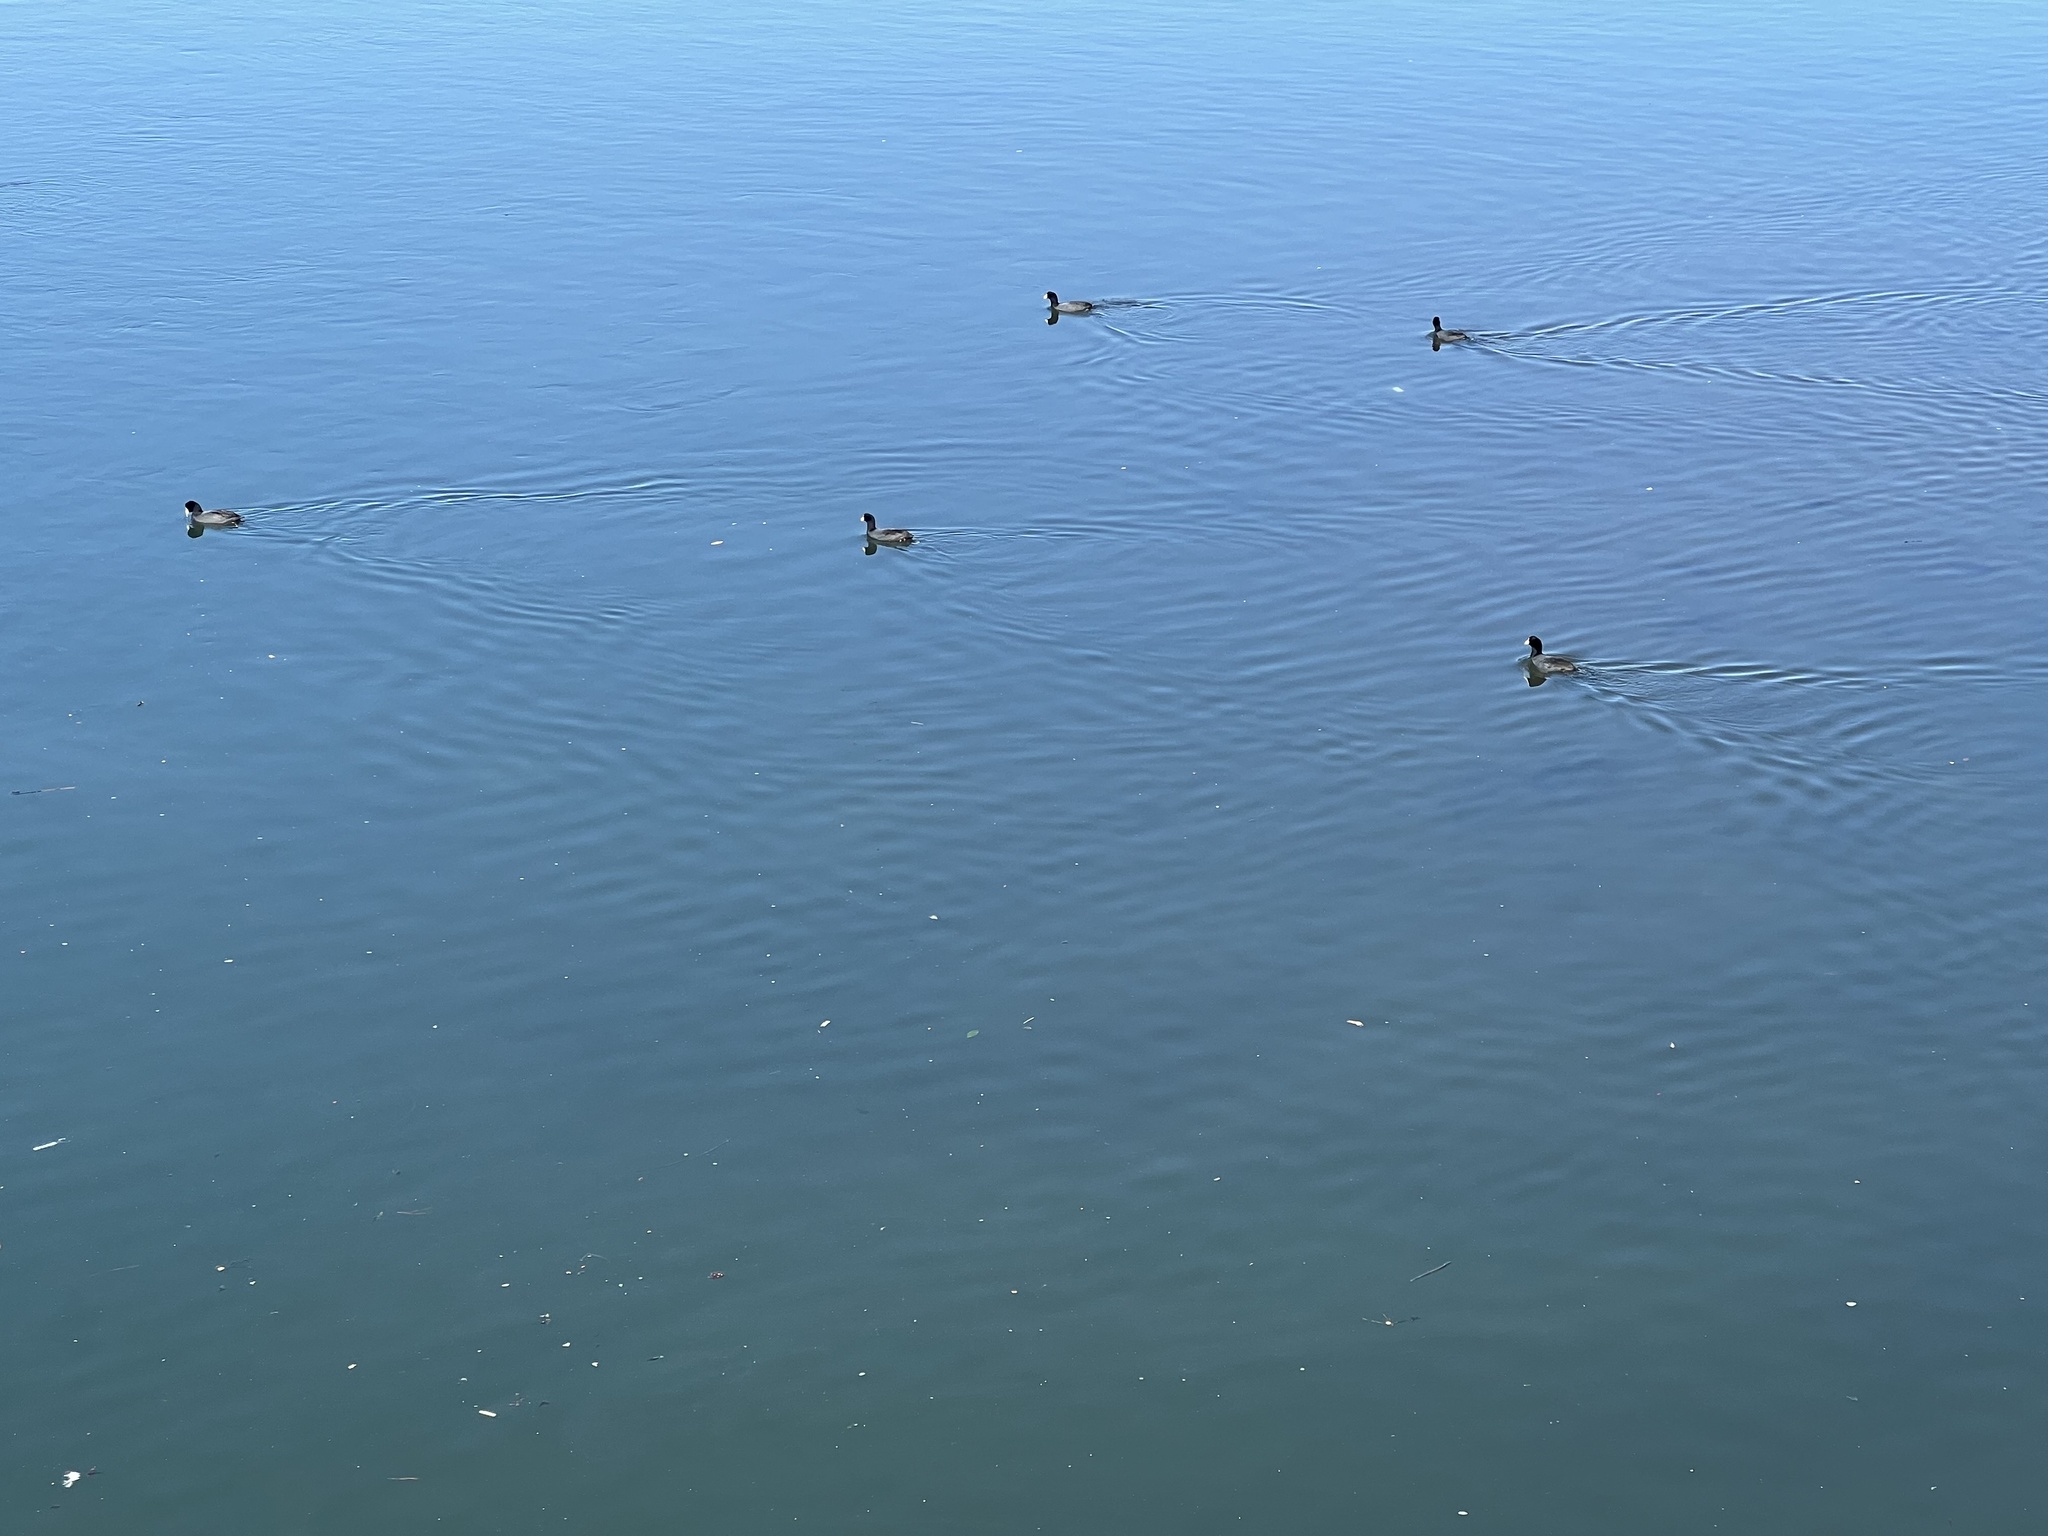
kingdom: Animalia
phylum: Chordata
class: Aves
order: Gruiformes
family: Rallidae
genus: Fulica
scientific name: Fulica americana
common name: American coot
